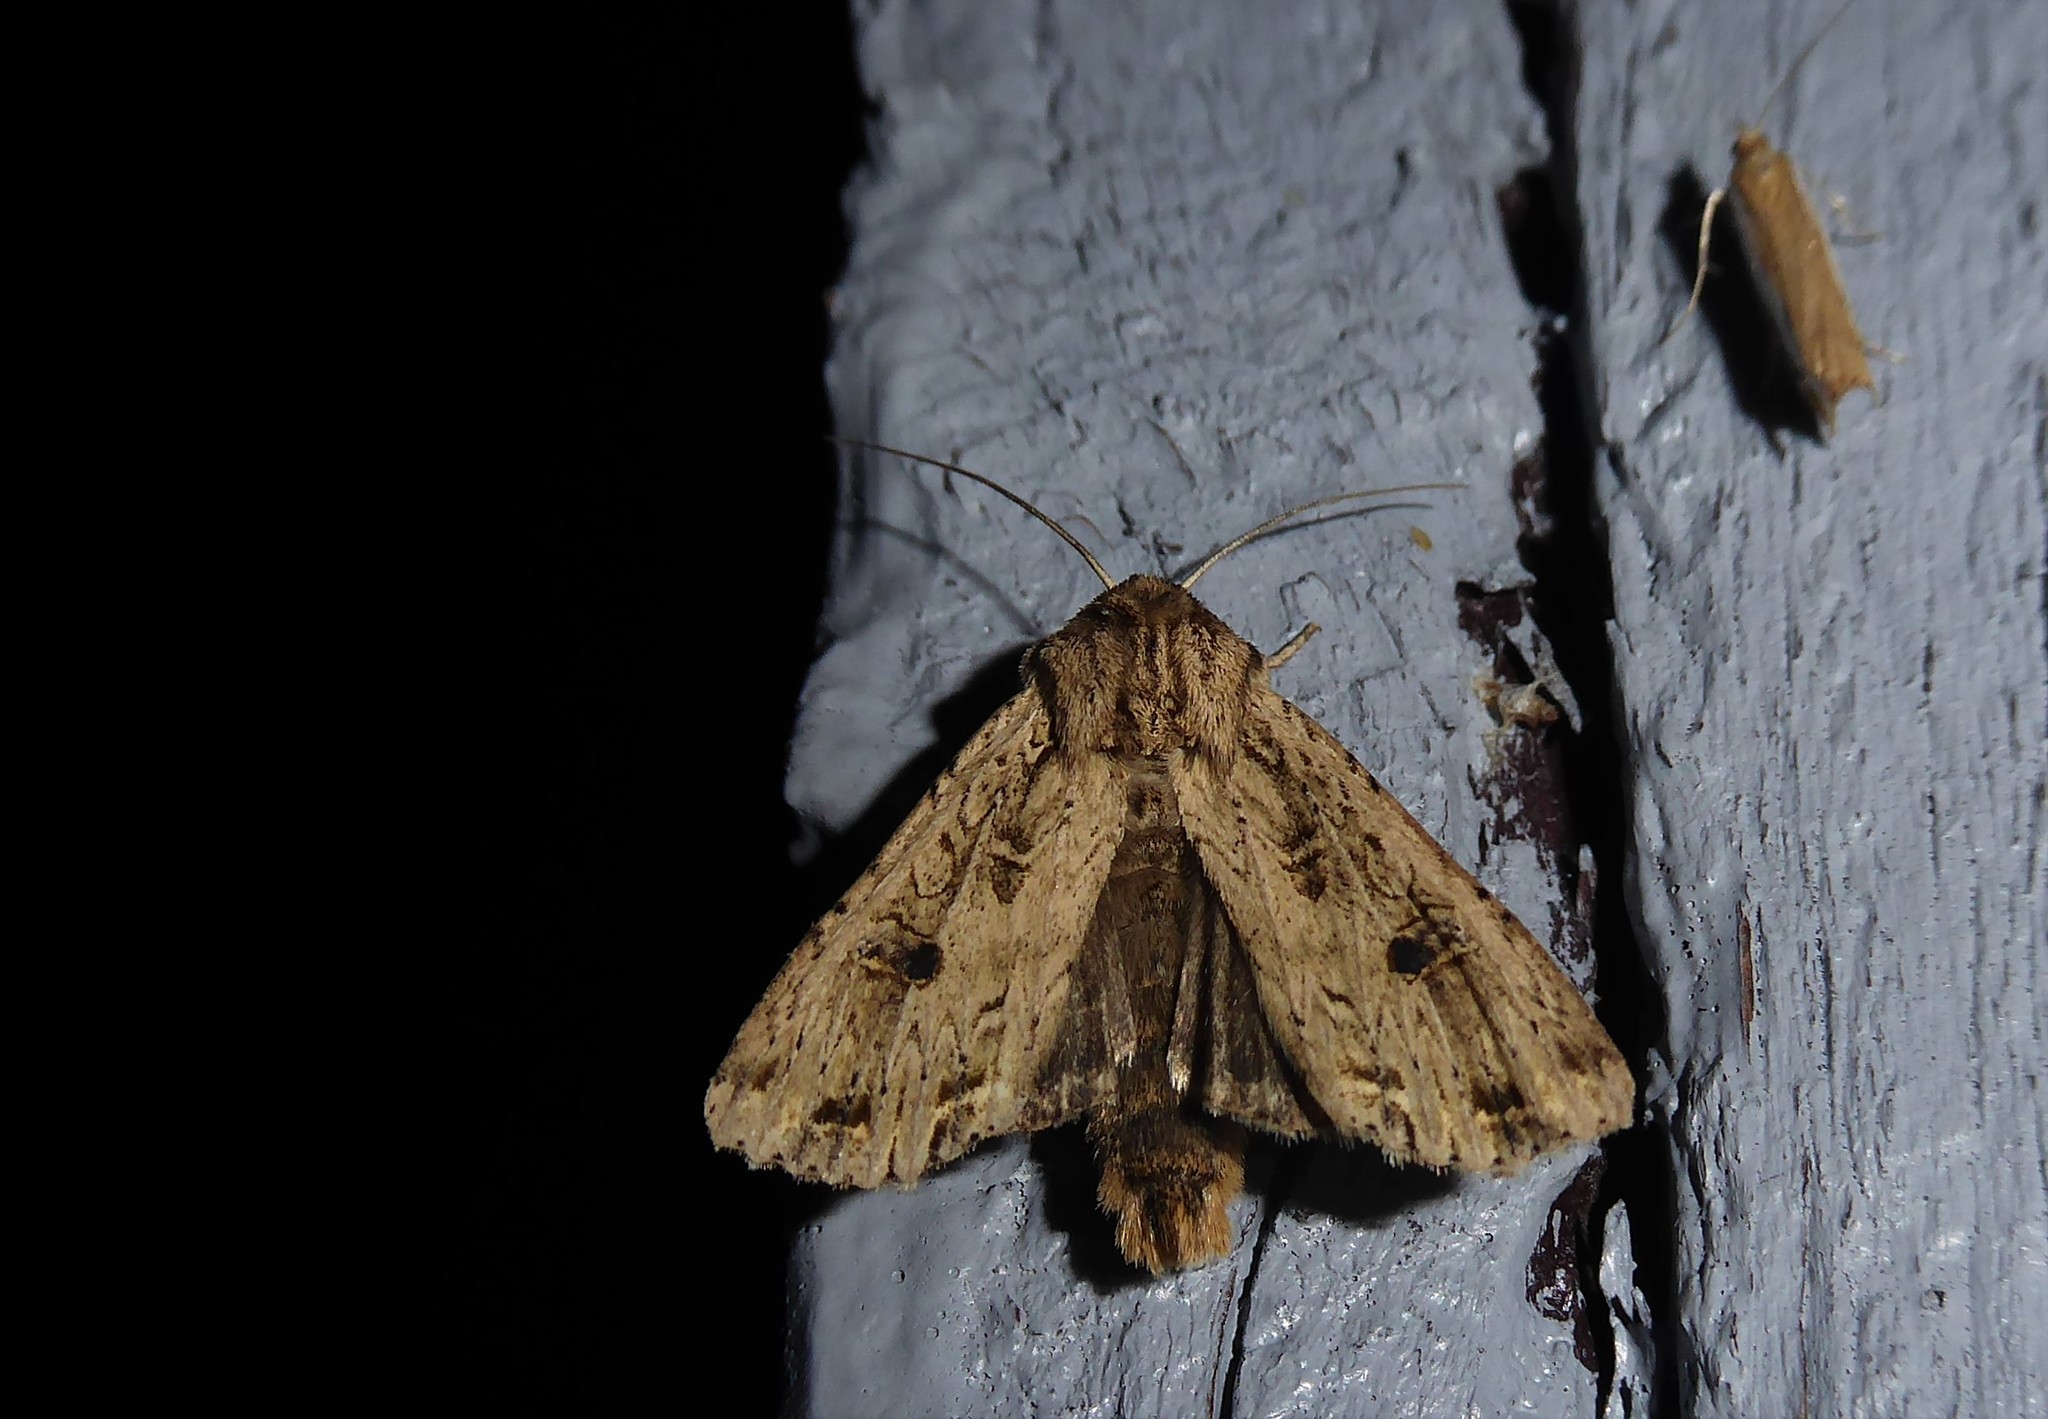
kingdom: Animalia
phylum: Arthropoda
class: Insecta
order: Lepidoptera
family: Noctuidae
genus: Ichneutica
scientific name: Ichneutica lignana
